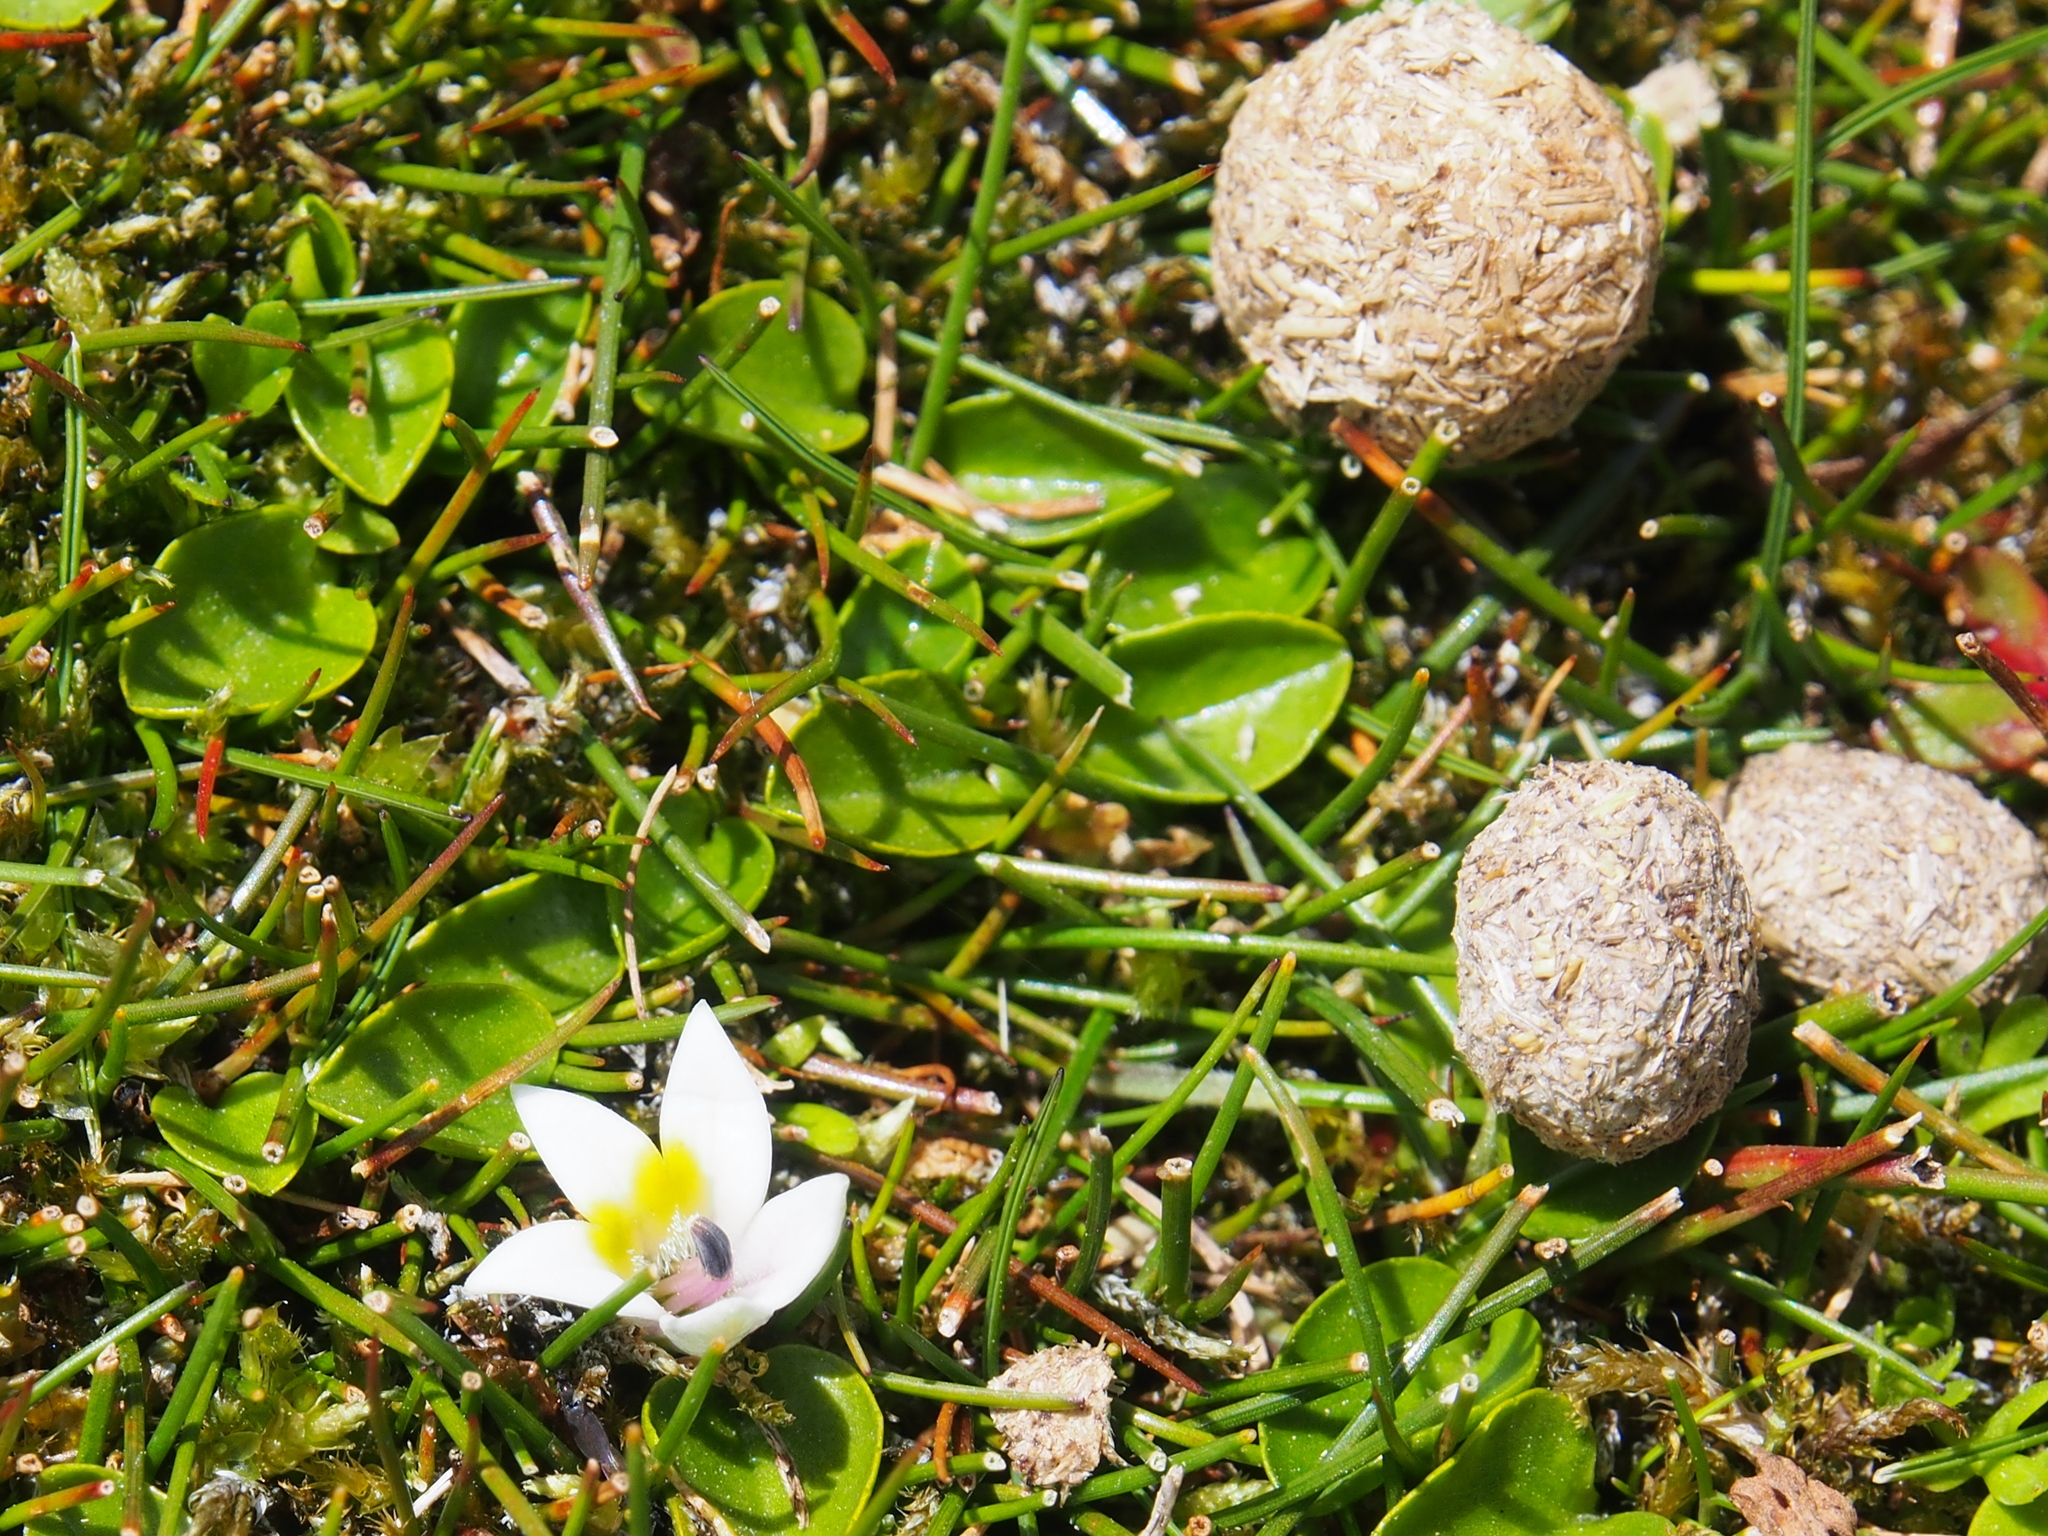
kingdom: Animalia
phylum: Chordata
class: Mammalia
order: Lagomorpha
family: Leporidae
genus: Sylvilagus
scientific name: Sylvilagus andinus
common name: Andean cottontail
